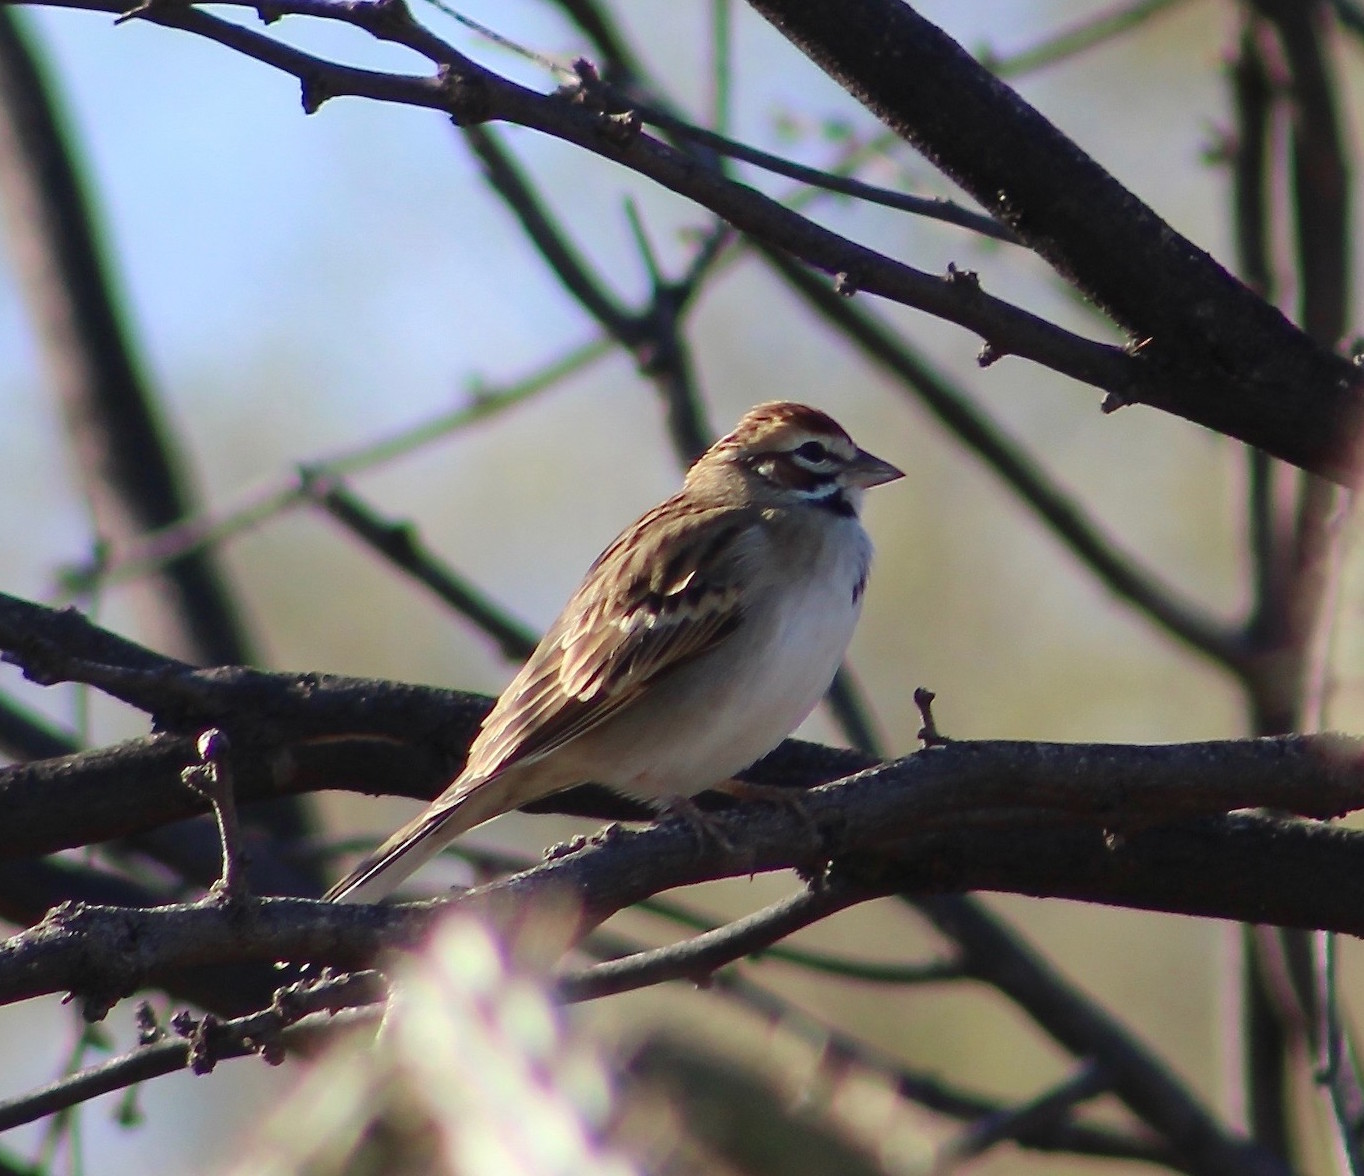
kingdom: Animalia
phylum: Chordata
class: Aves
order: Passeriformes
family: Passerellidae
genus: Chondestes
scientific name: Chondestes grammacus
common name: Lark sparrow
